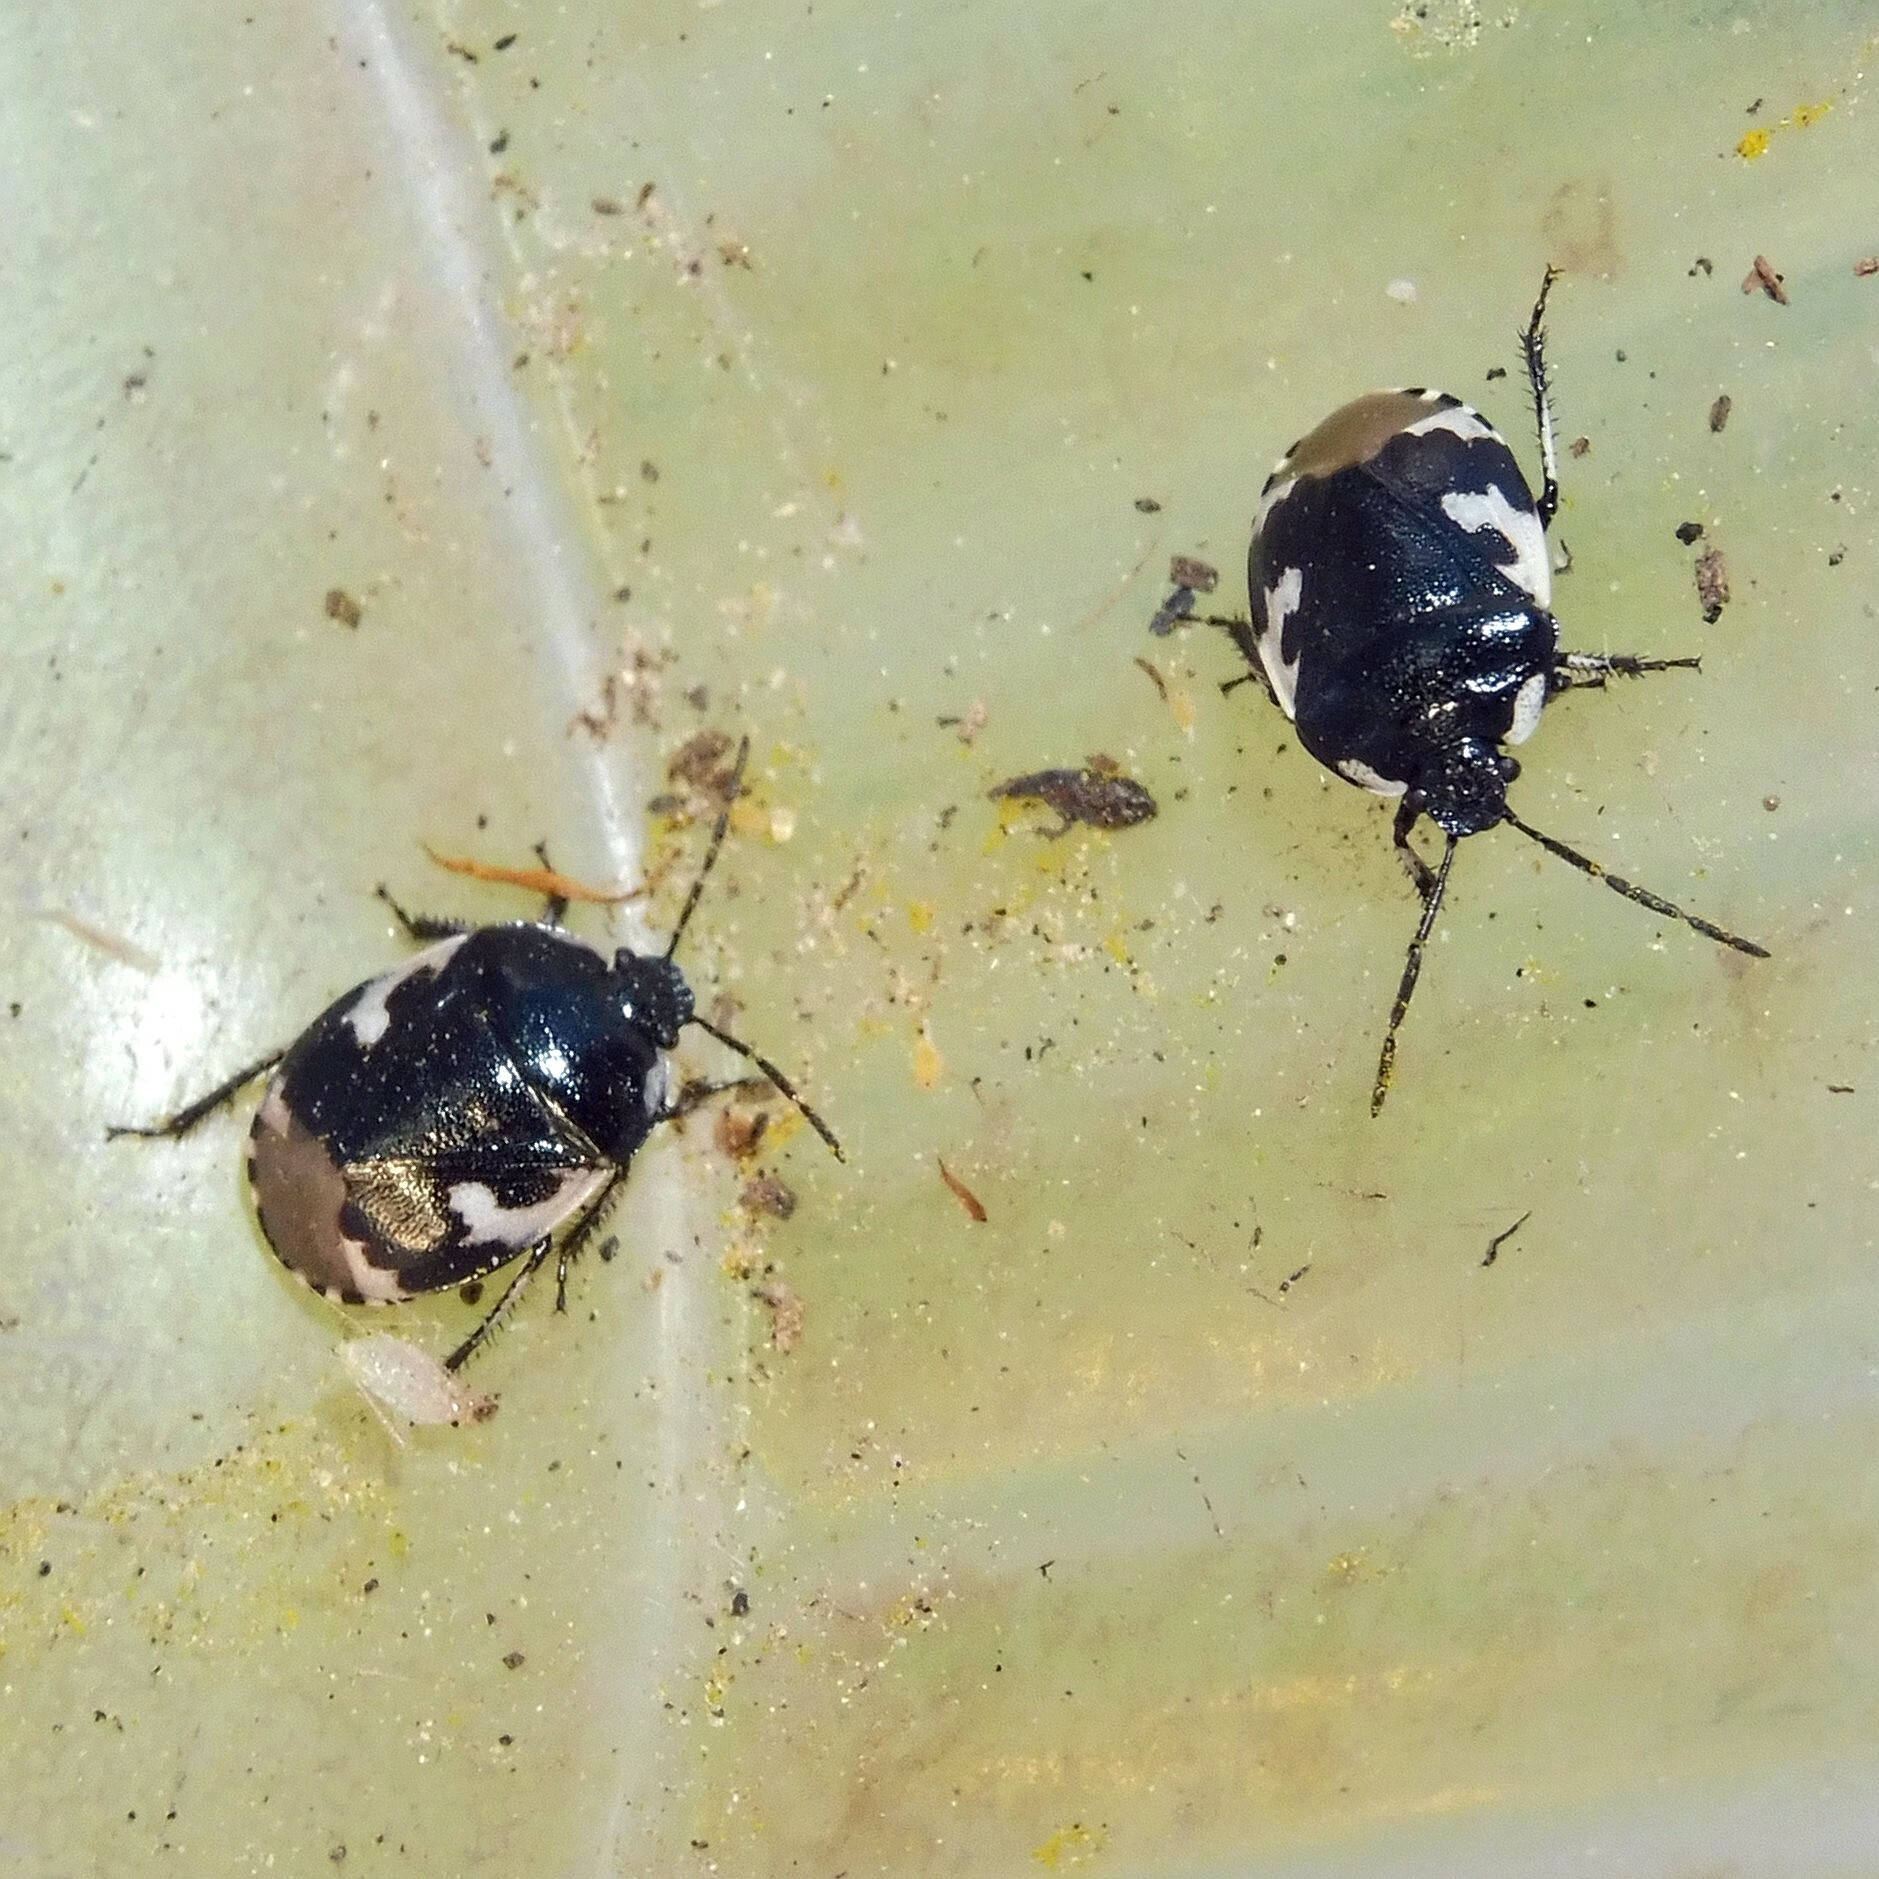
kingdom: Animalia
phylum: Arthropoda
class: Insecta
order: Hemiptera
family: Cydnidae
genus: Tritomegas
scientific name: Tritomegas bicolor
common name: Pied shieldbug
